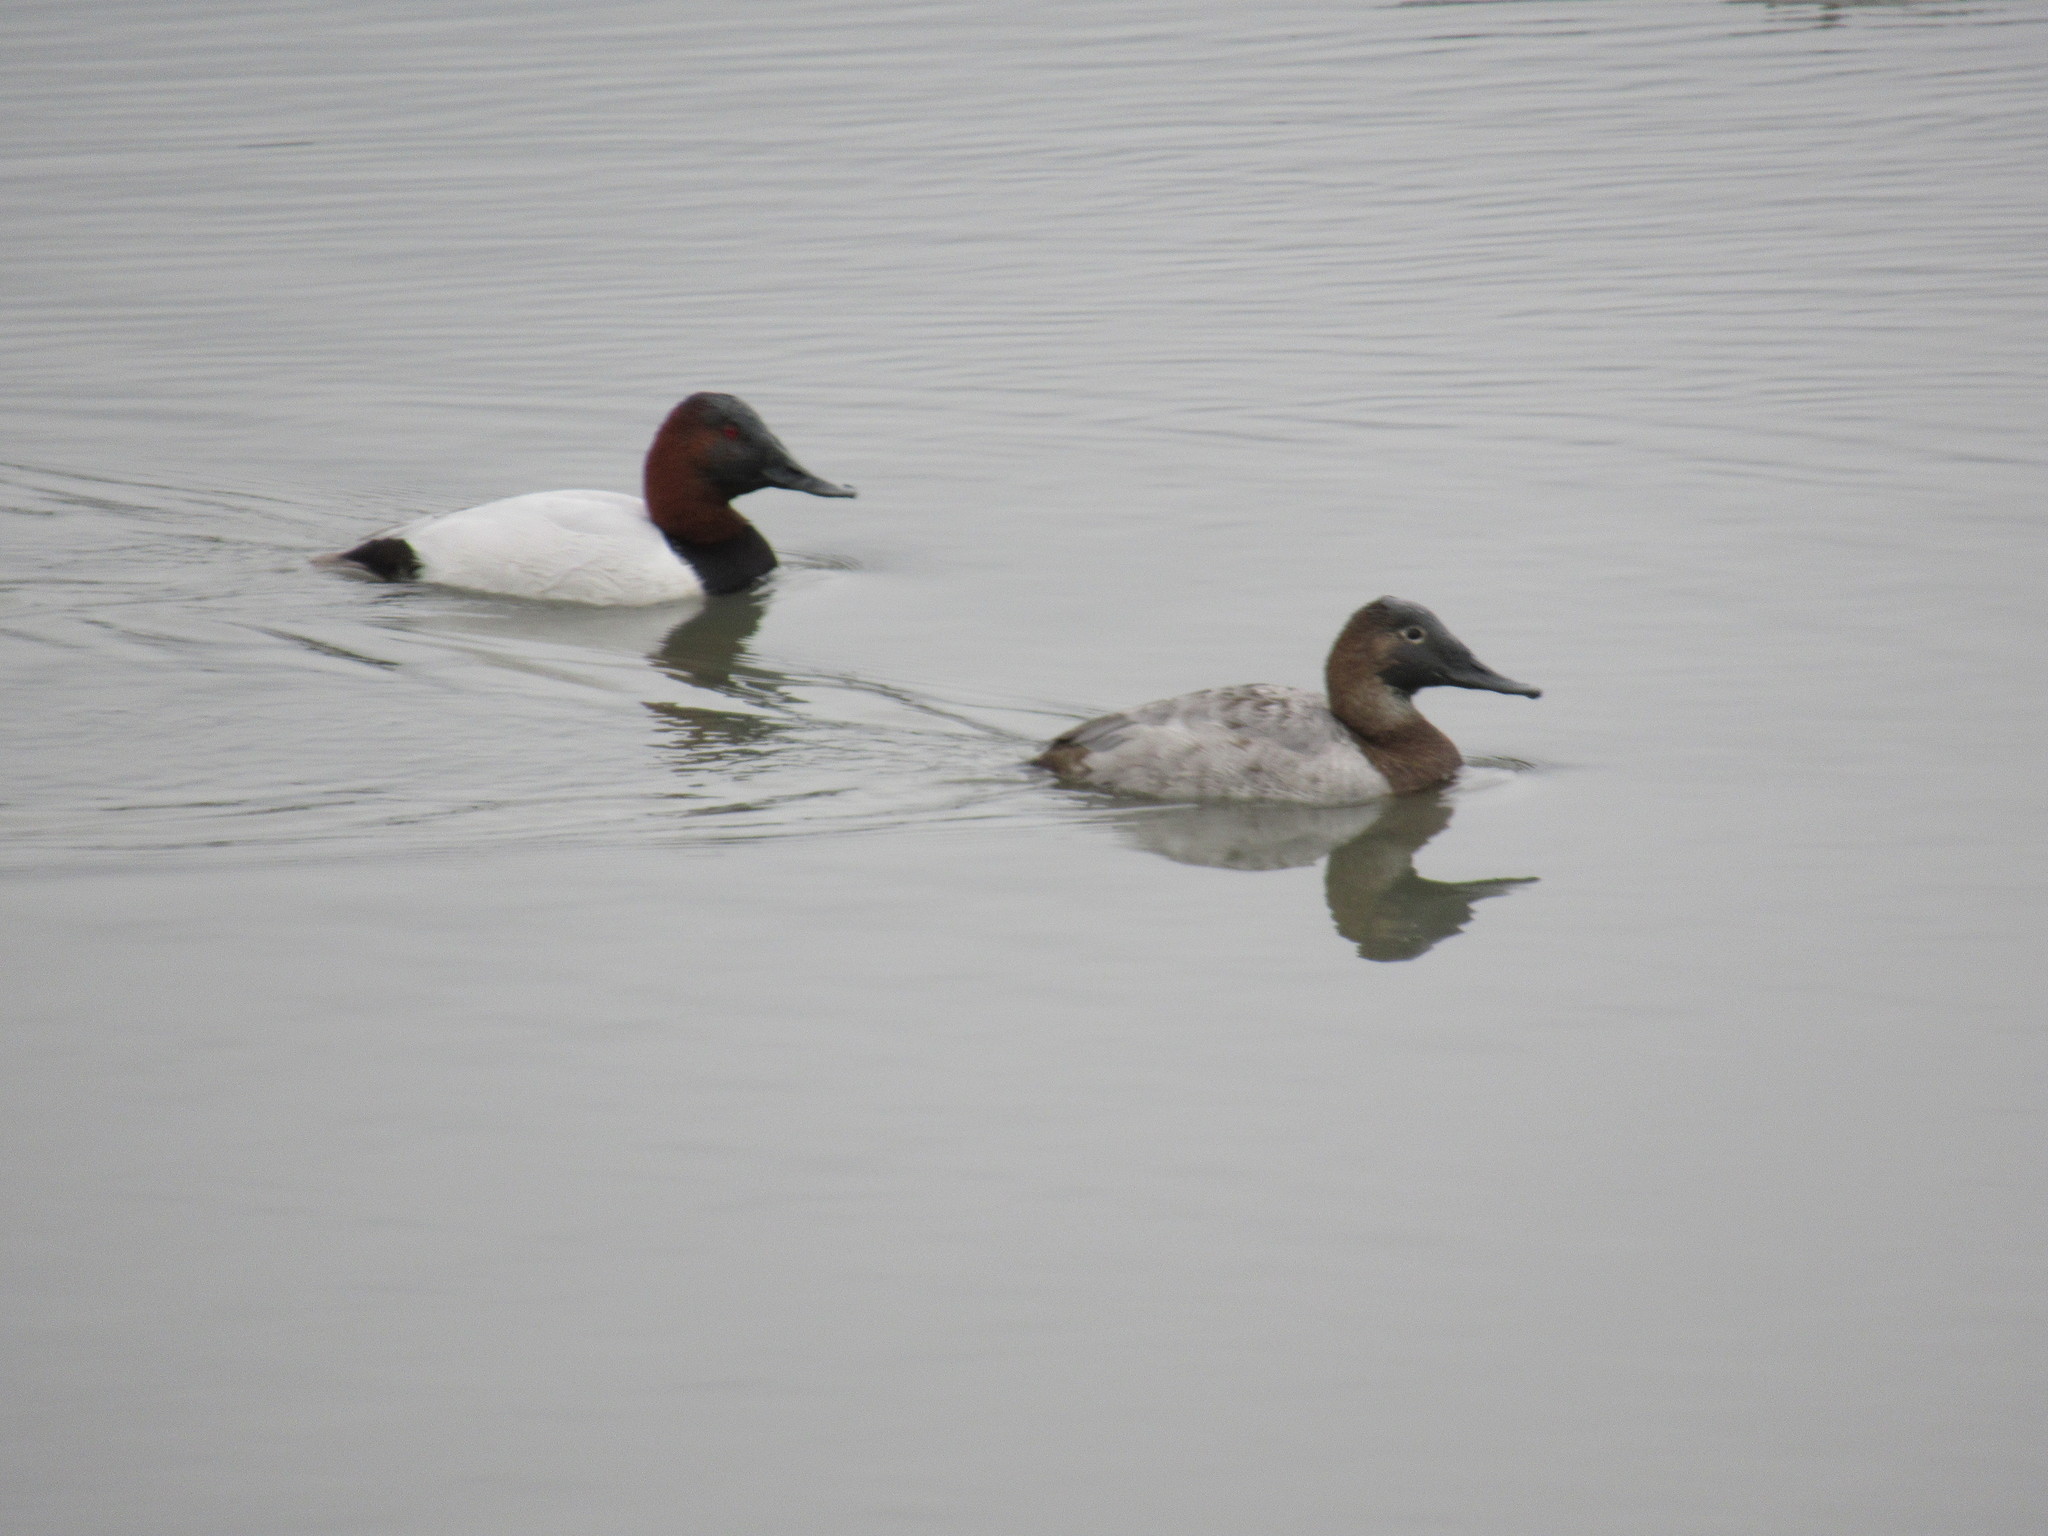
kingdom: Animalia
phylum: Chordata
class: Aves
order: Anseriformes
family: Anatidae
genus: Aythya
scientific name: Aythya valisineria
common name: Canvasback
